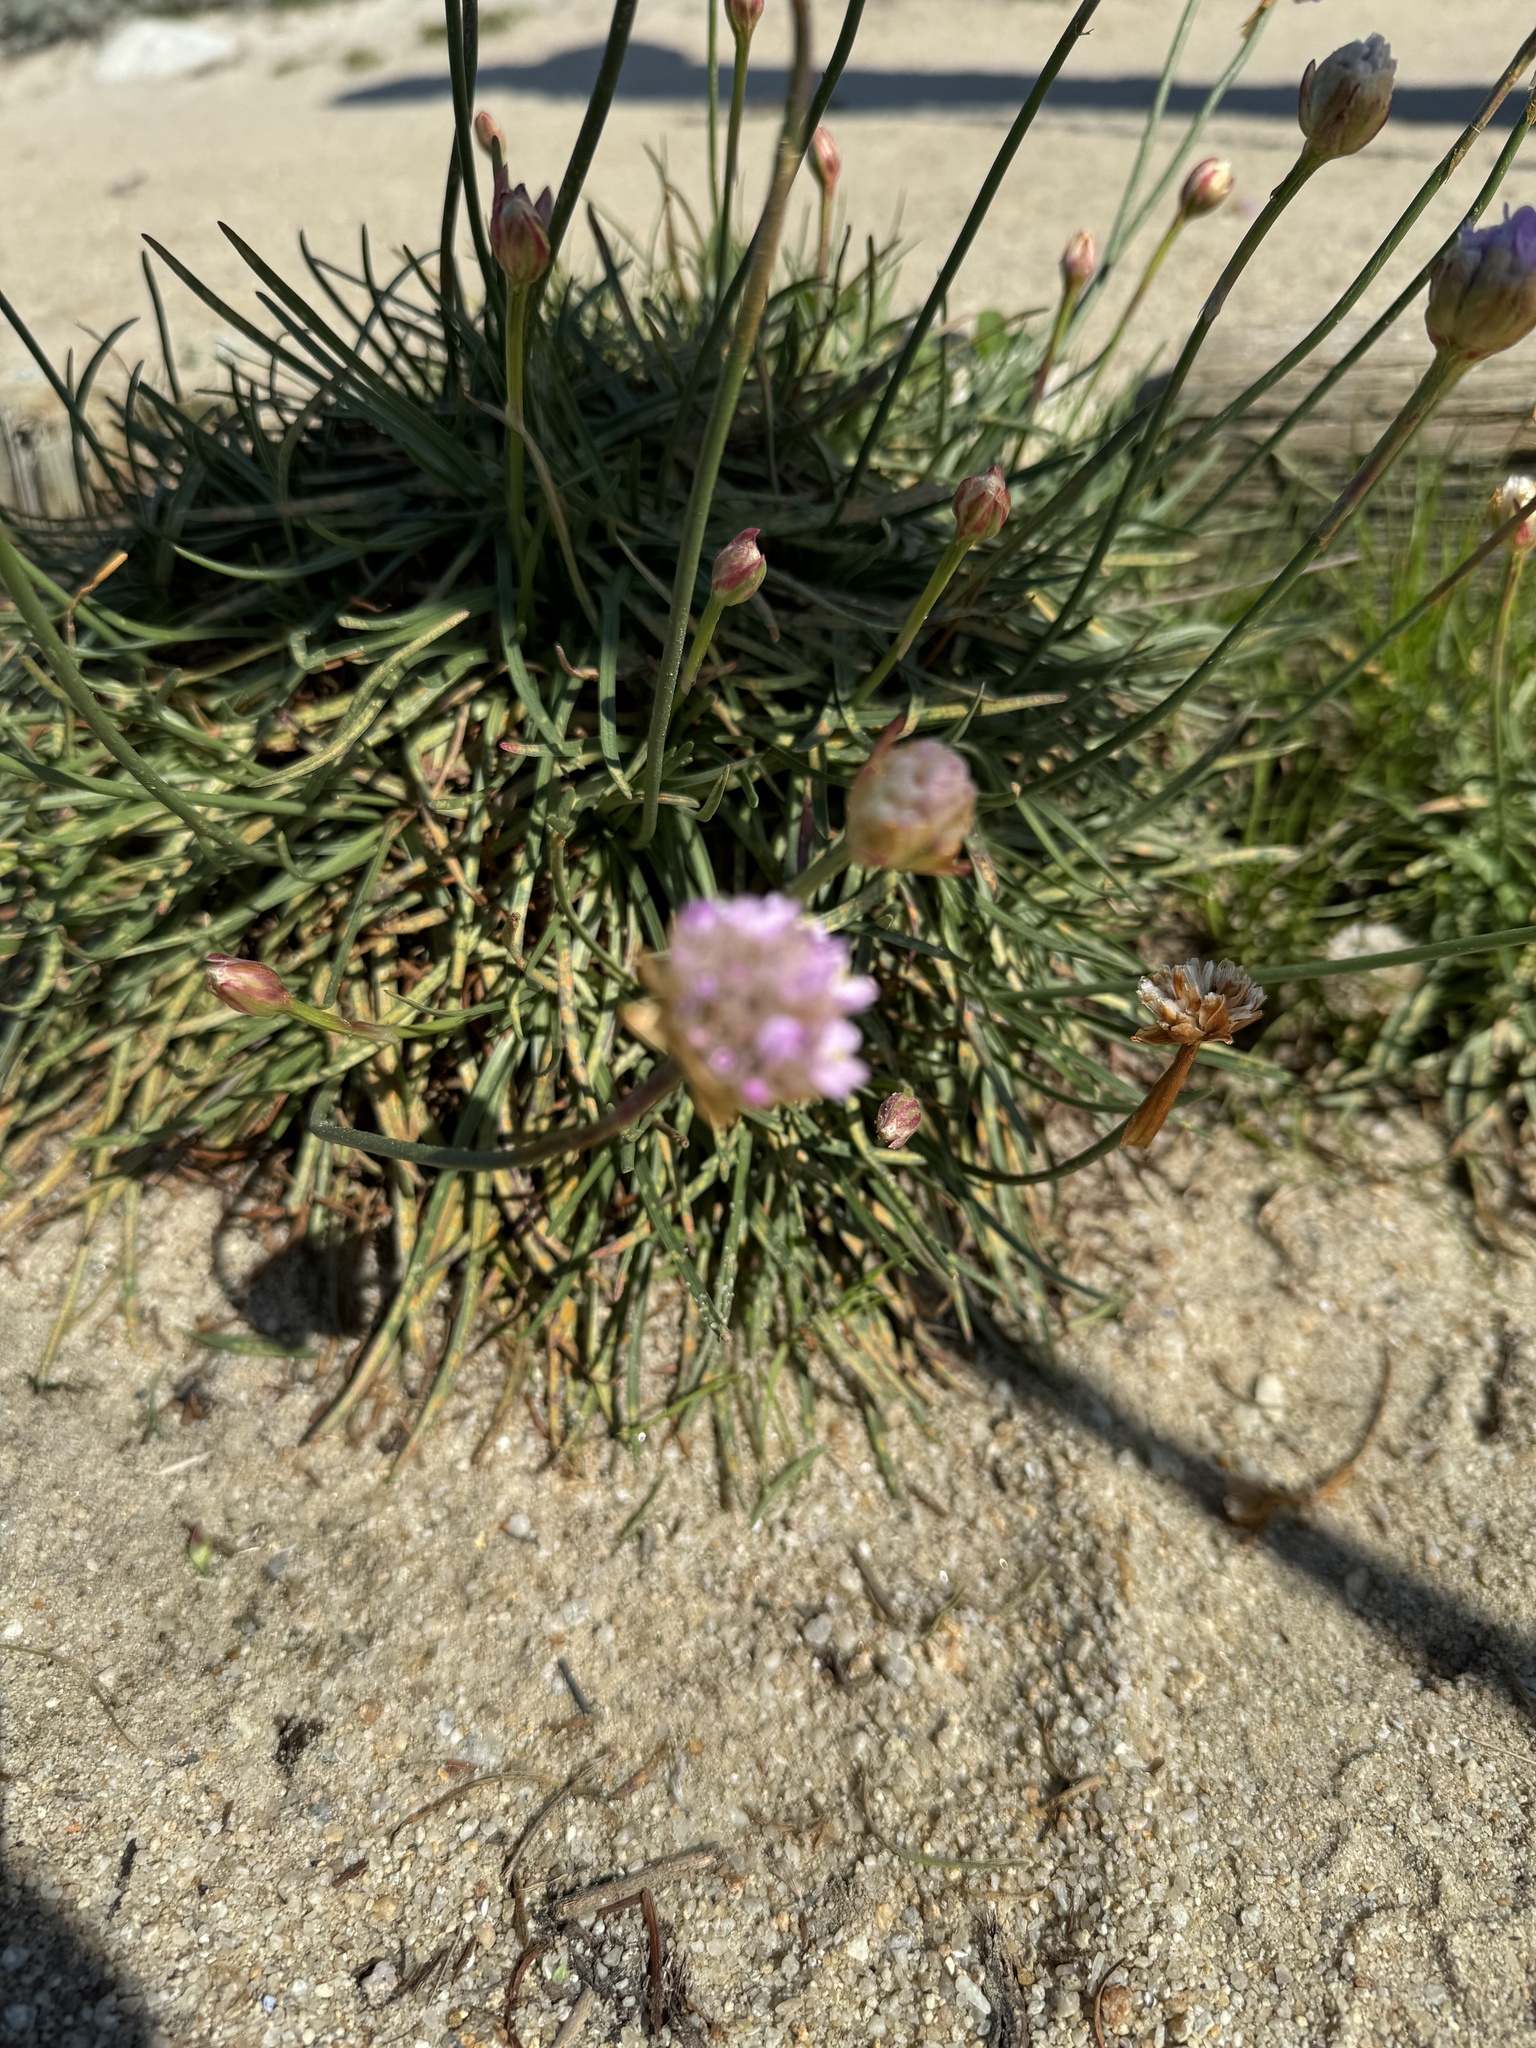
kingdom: Plantae
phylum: Tracheophyta
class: Magnoliopsida
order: Caryophyllales
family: Plumbaginaceae
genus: Armeria
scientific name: Armeria maritima
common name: Thrift
